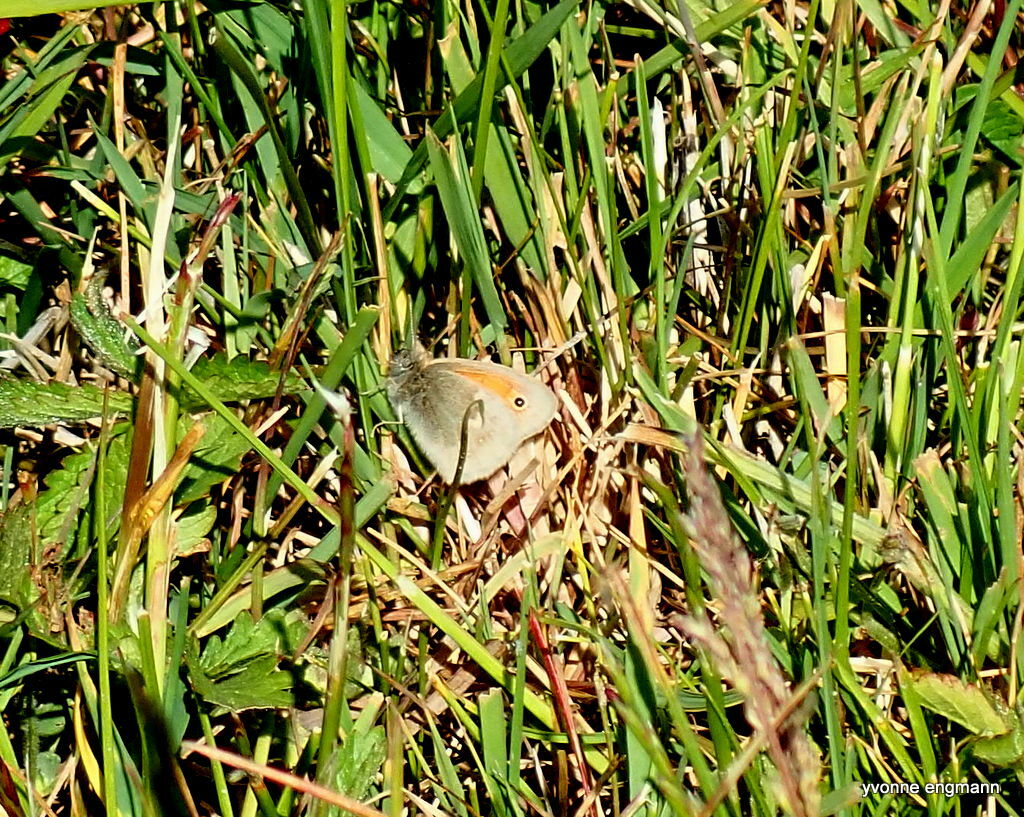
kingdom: Animalia
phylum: Arthropoda
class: Insecta
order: Lepidoptera
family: Nymphalidae
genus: Coenonympha
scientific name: Coenonympha pamphilus
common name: Small heath
